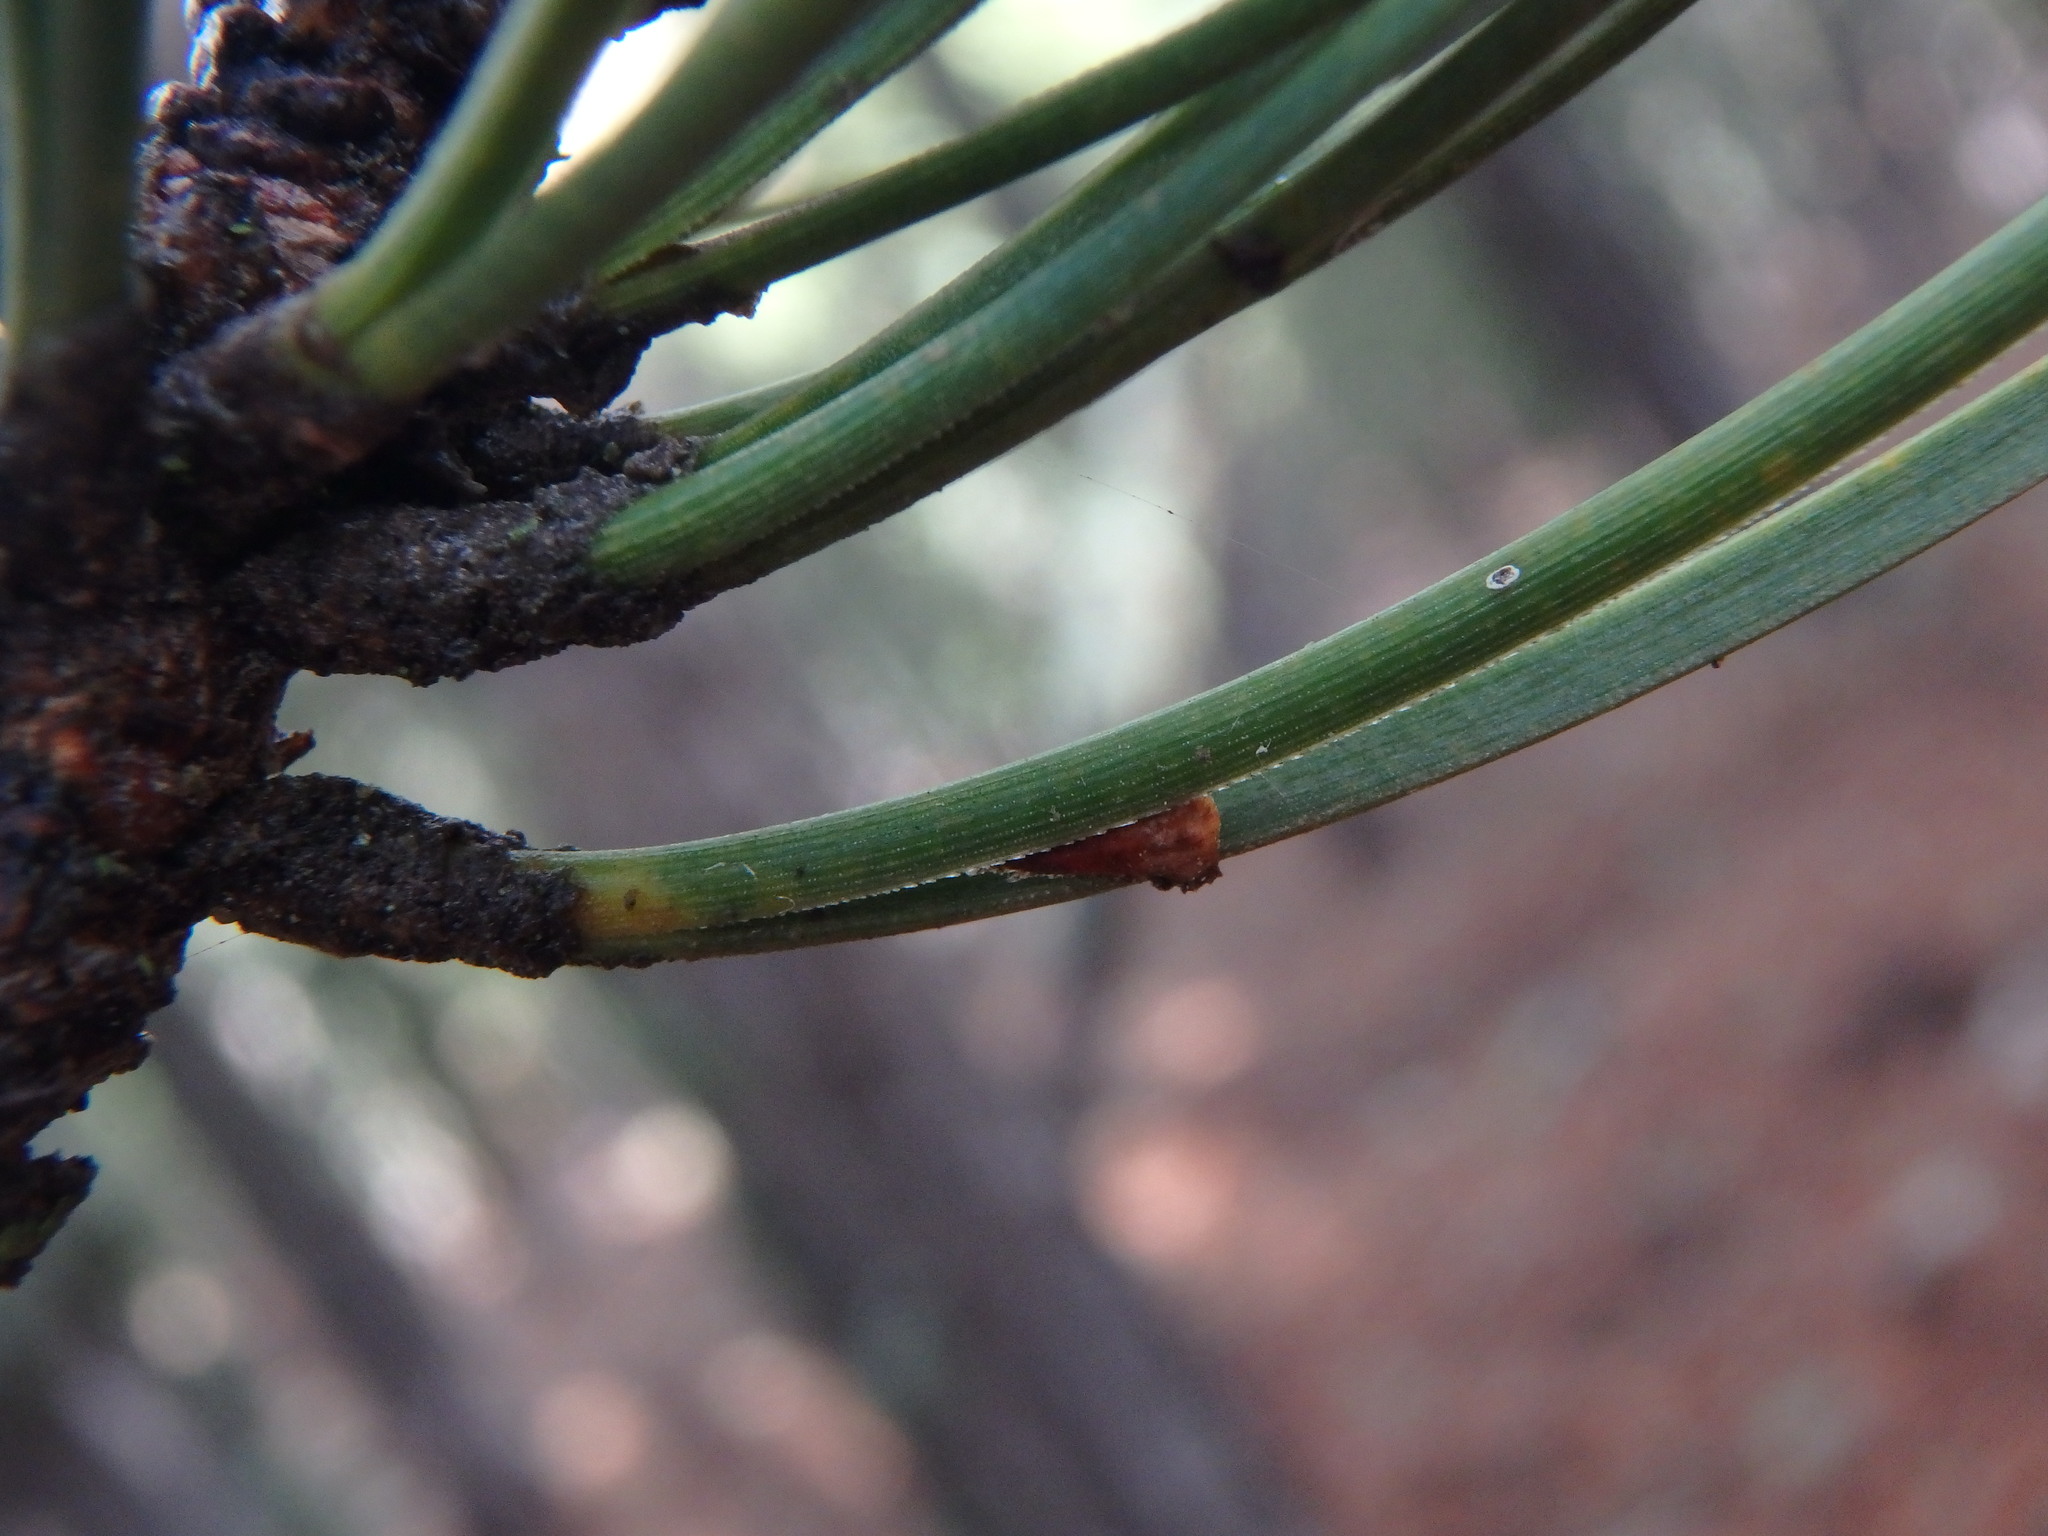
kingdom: Plantae
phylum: Tracheophyta
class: Pinopsida
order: Pinales
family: Pinaceae
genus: Pinus
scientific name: Pinus nigra
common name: Austrian pine
